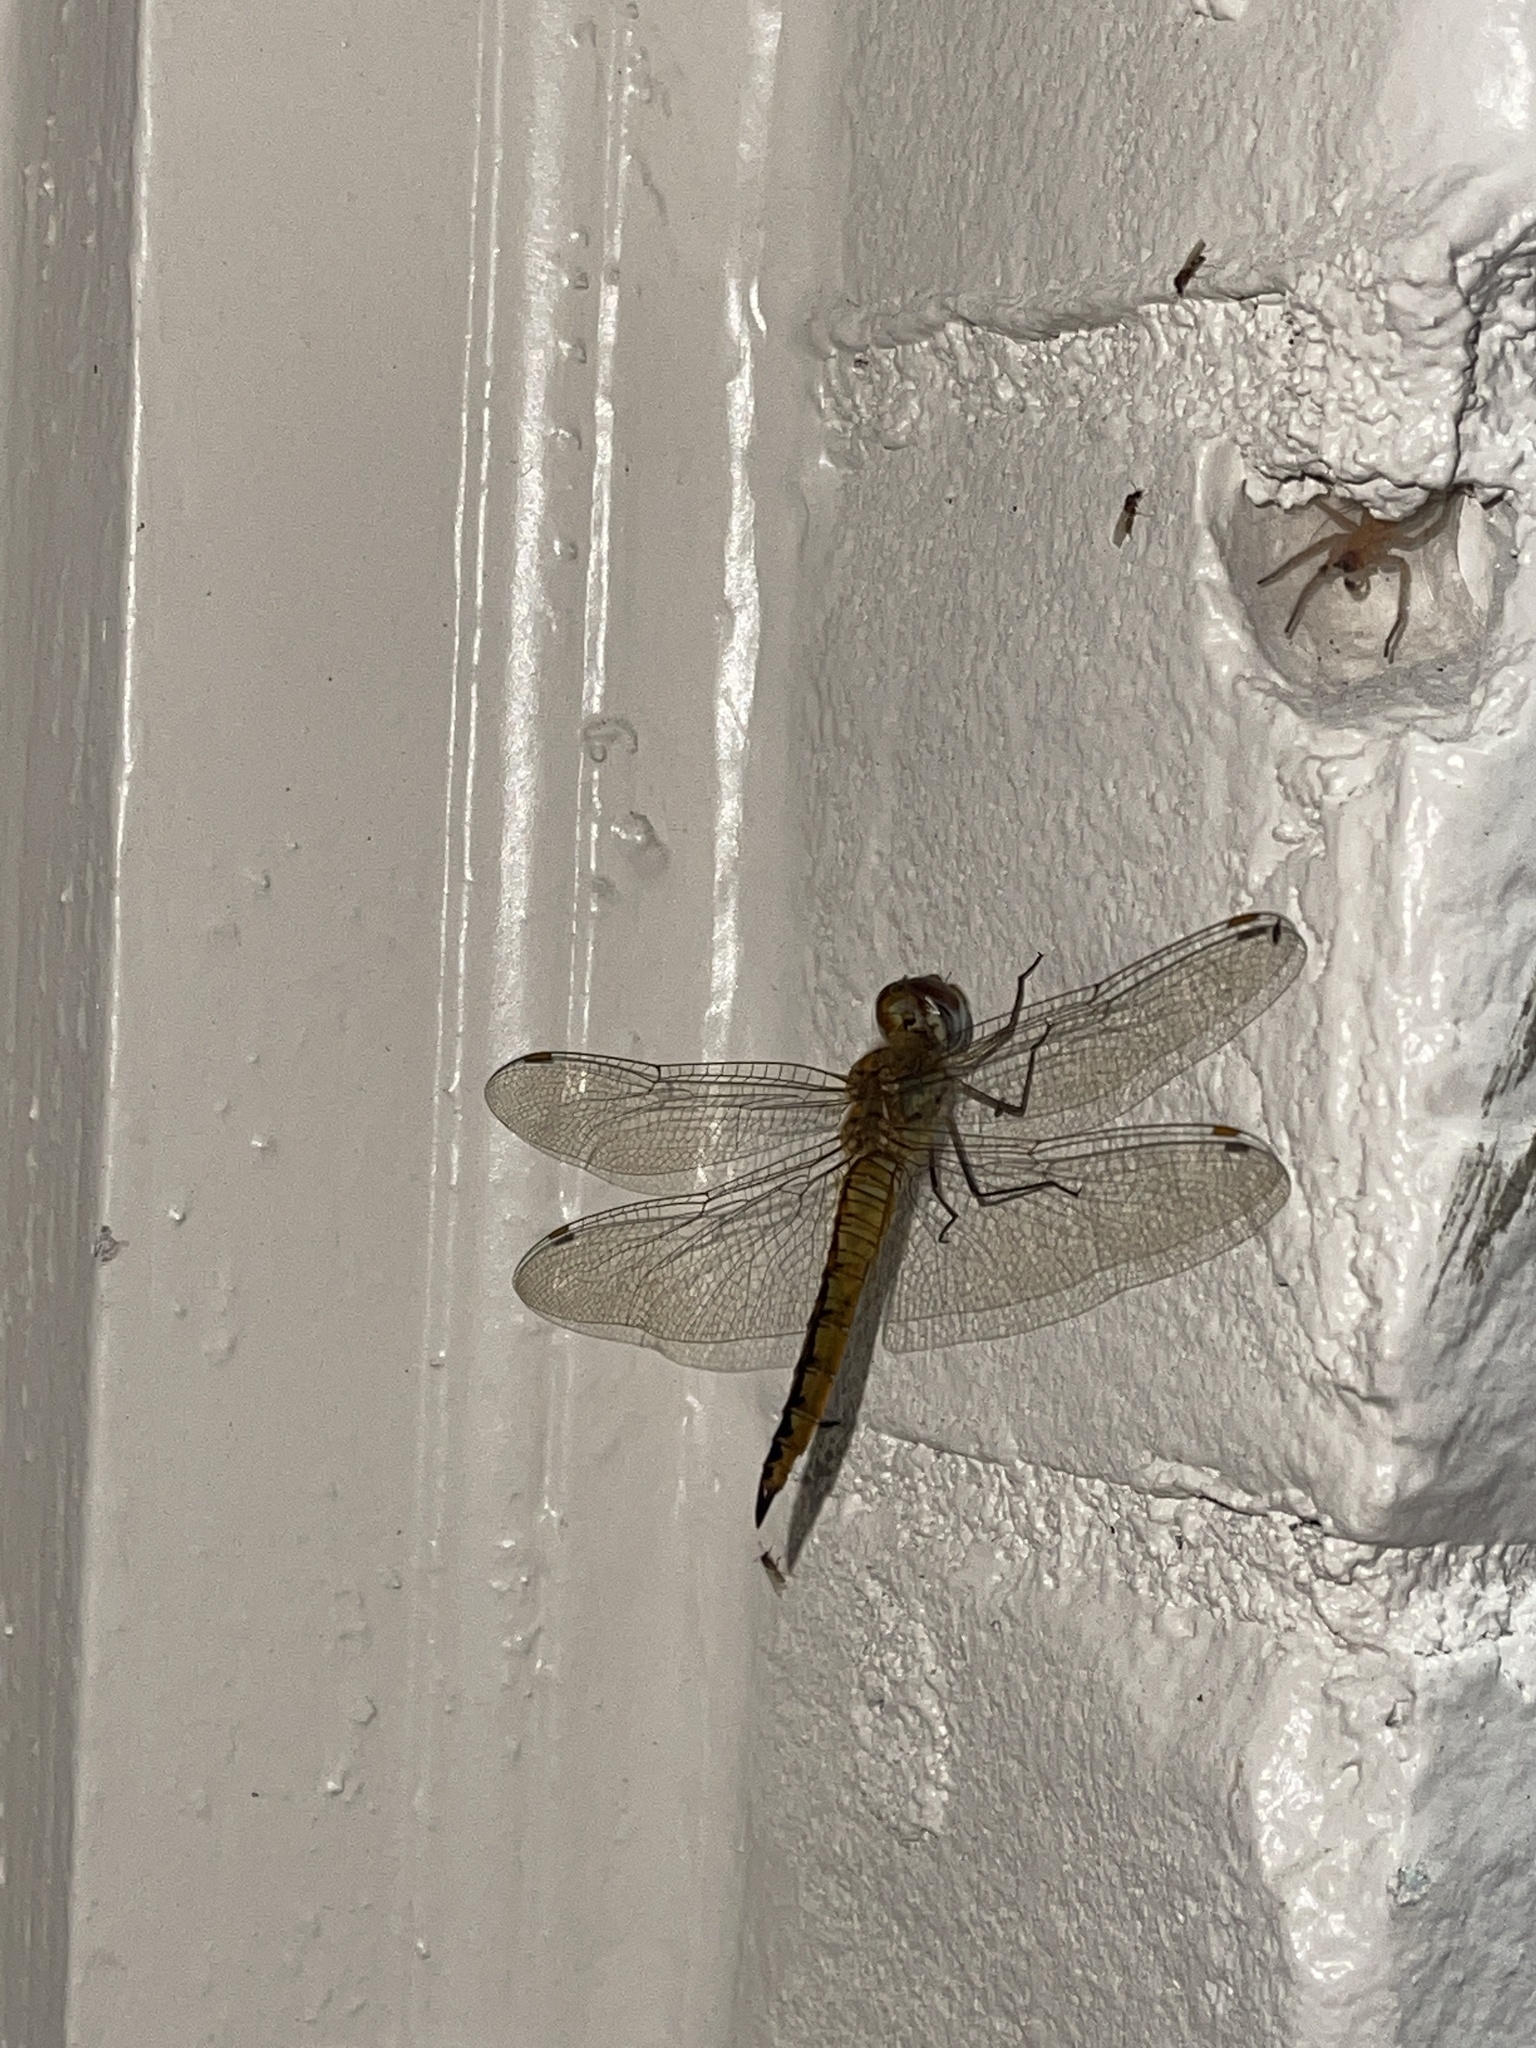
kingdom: Animalia
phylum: Arthropoda
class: Insecta
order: Odonata
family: Libellulidae
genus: Pantala
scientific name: Pantala flavescens
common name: Wandering glider
